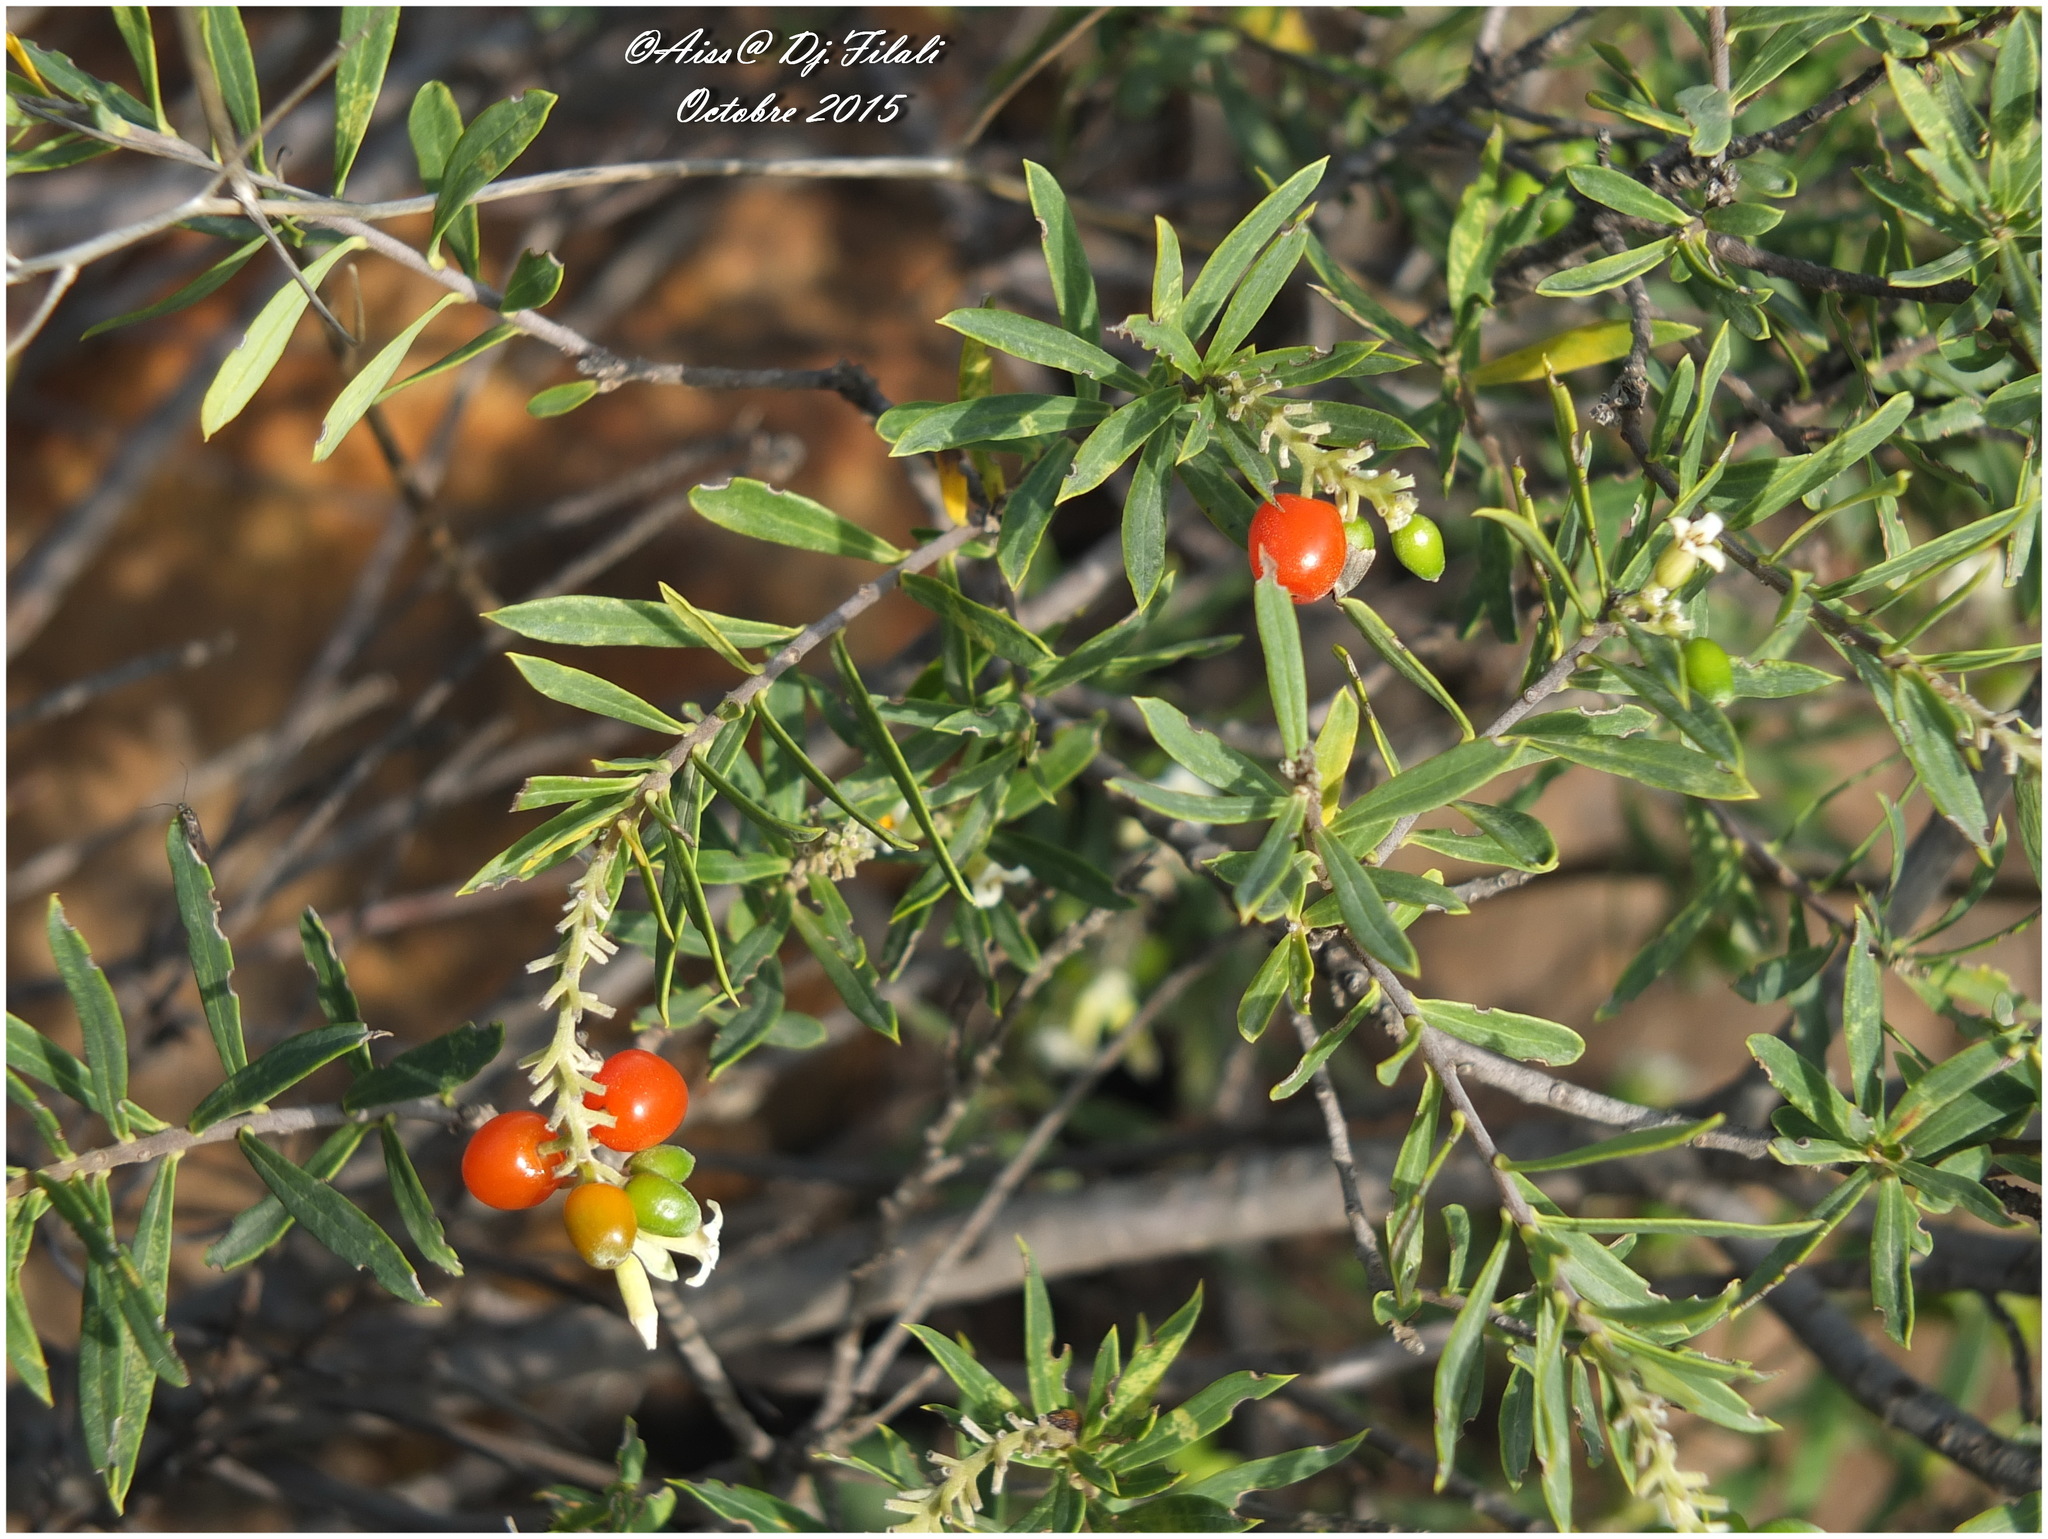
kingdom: Plantae
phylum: Tracheophyta
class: Magnoliopsida
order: Malvales
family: Thymelaeaceae
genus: Daphne
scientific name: Daphne gnidium
